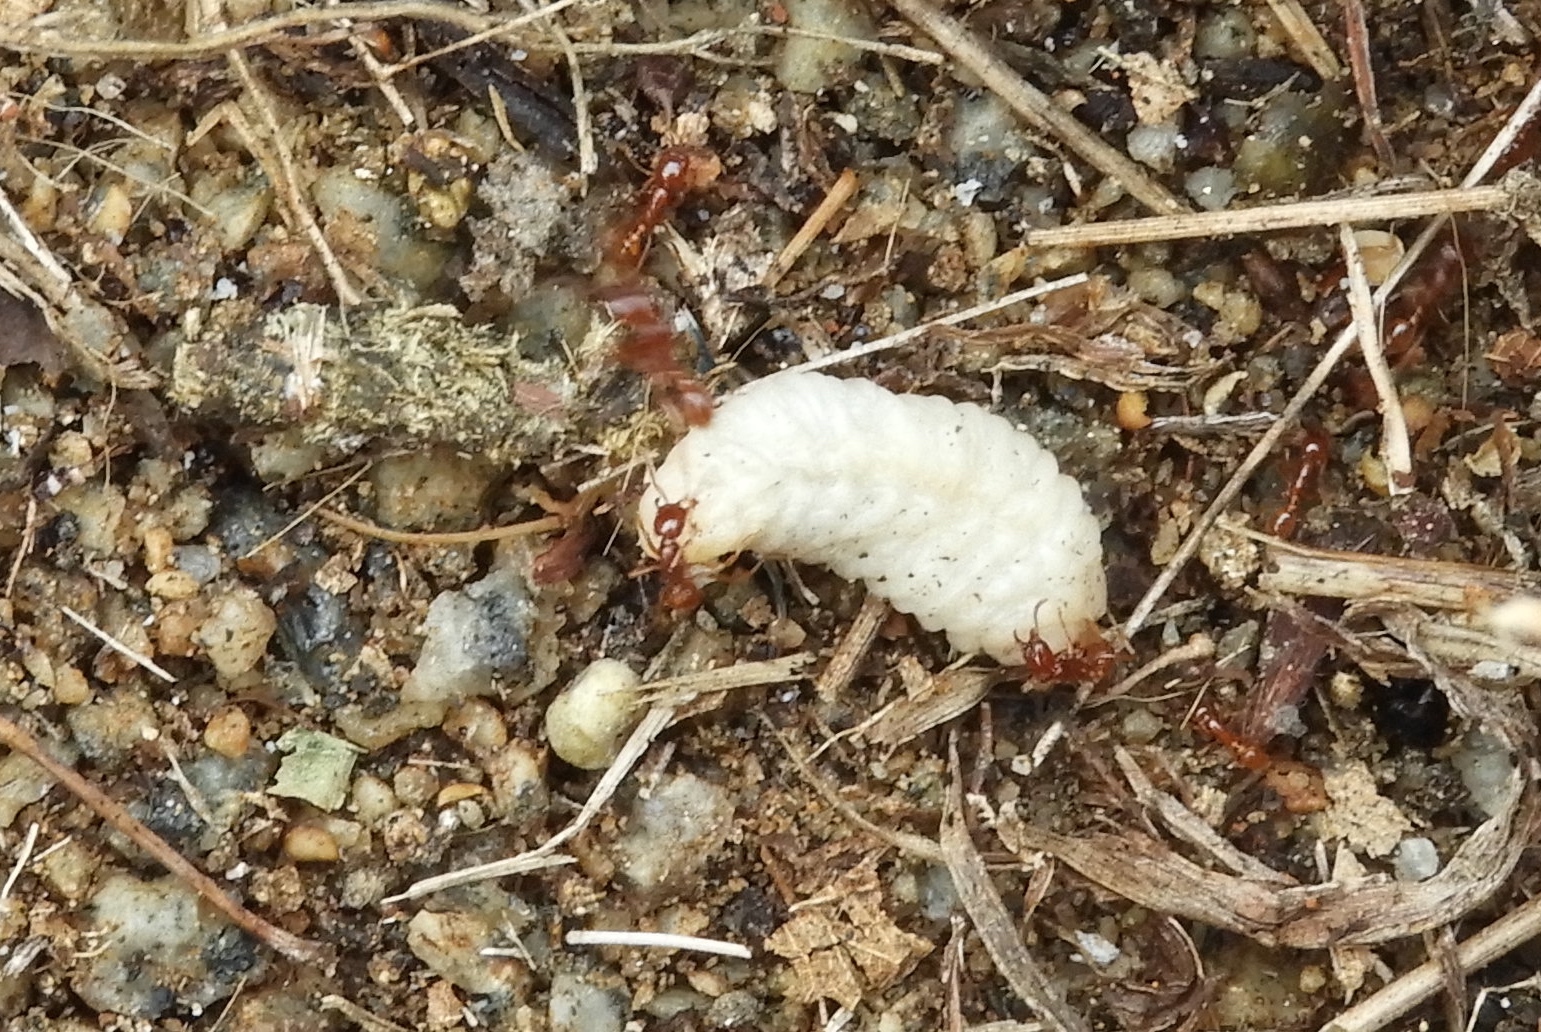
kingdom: Animalia
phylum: Arthropoda
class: Insecta
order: Hymenoptera
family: Formicidae
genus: Labidus
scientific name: Labidus coecus
